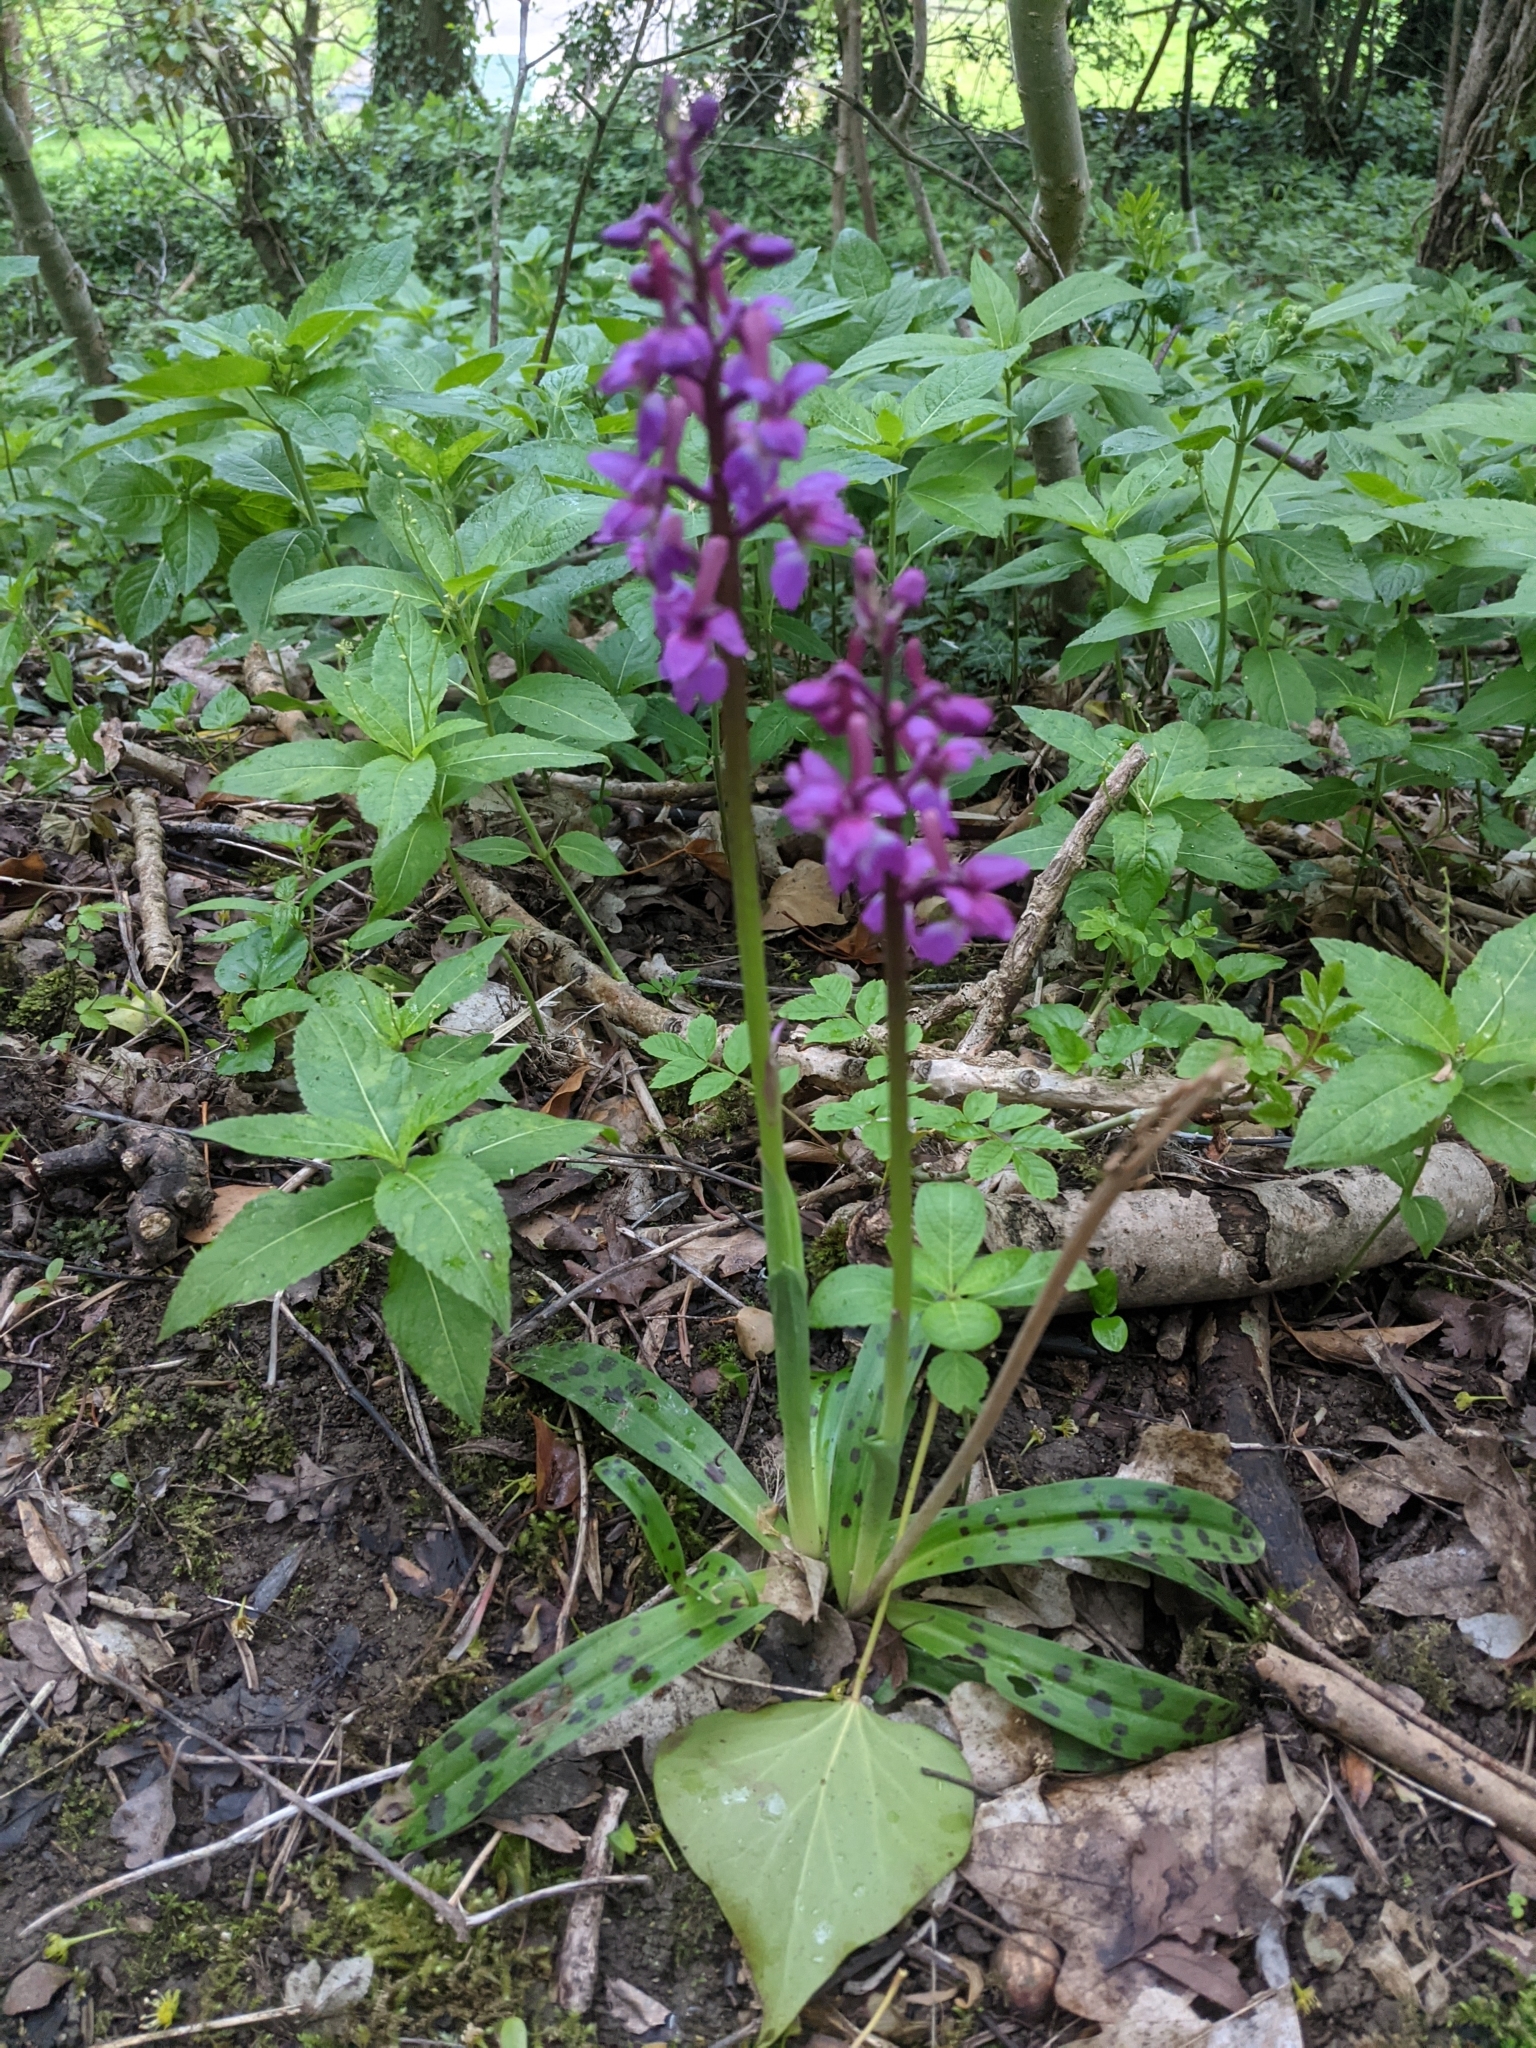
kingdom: Plantae
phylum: Tracheophyta
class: Liliopsida
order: Asparagales
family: Orchidaceae
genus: Orchis
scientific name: Orchis mascula
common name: Early-purple orchid
